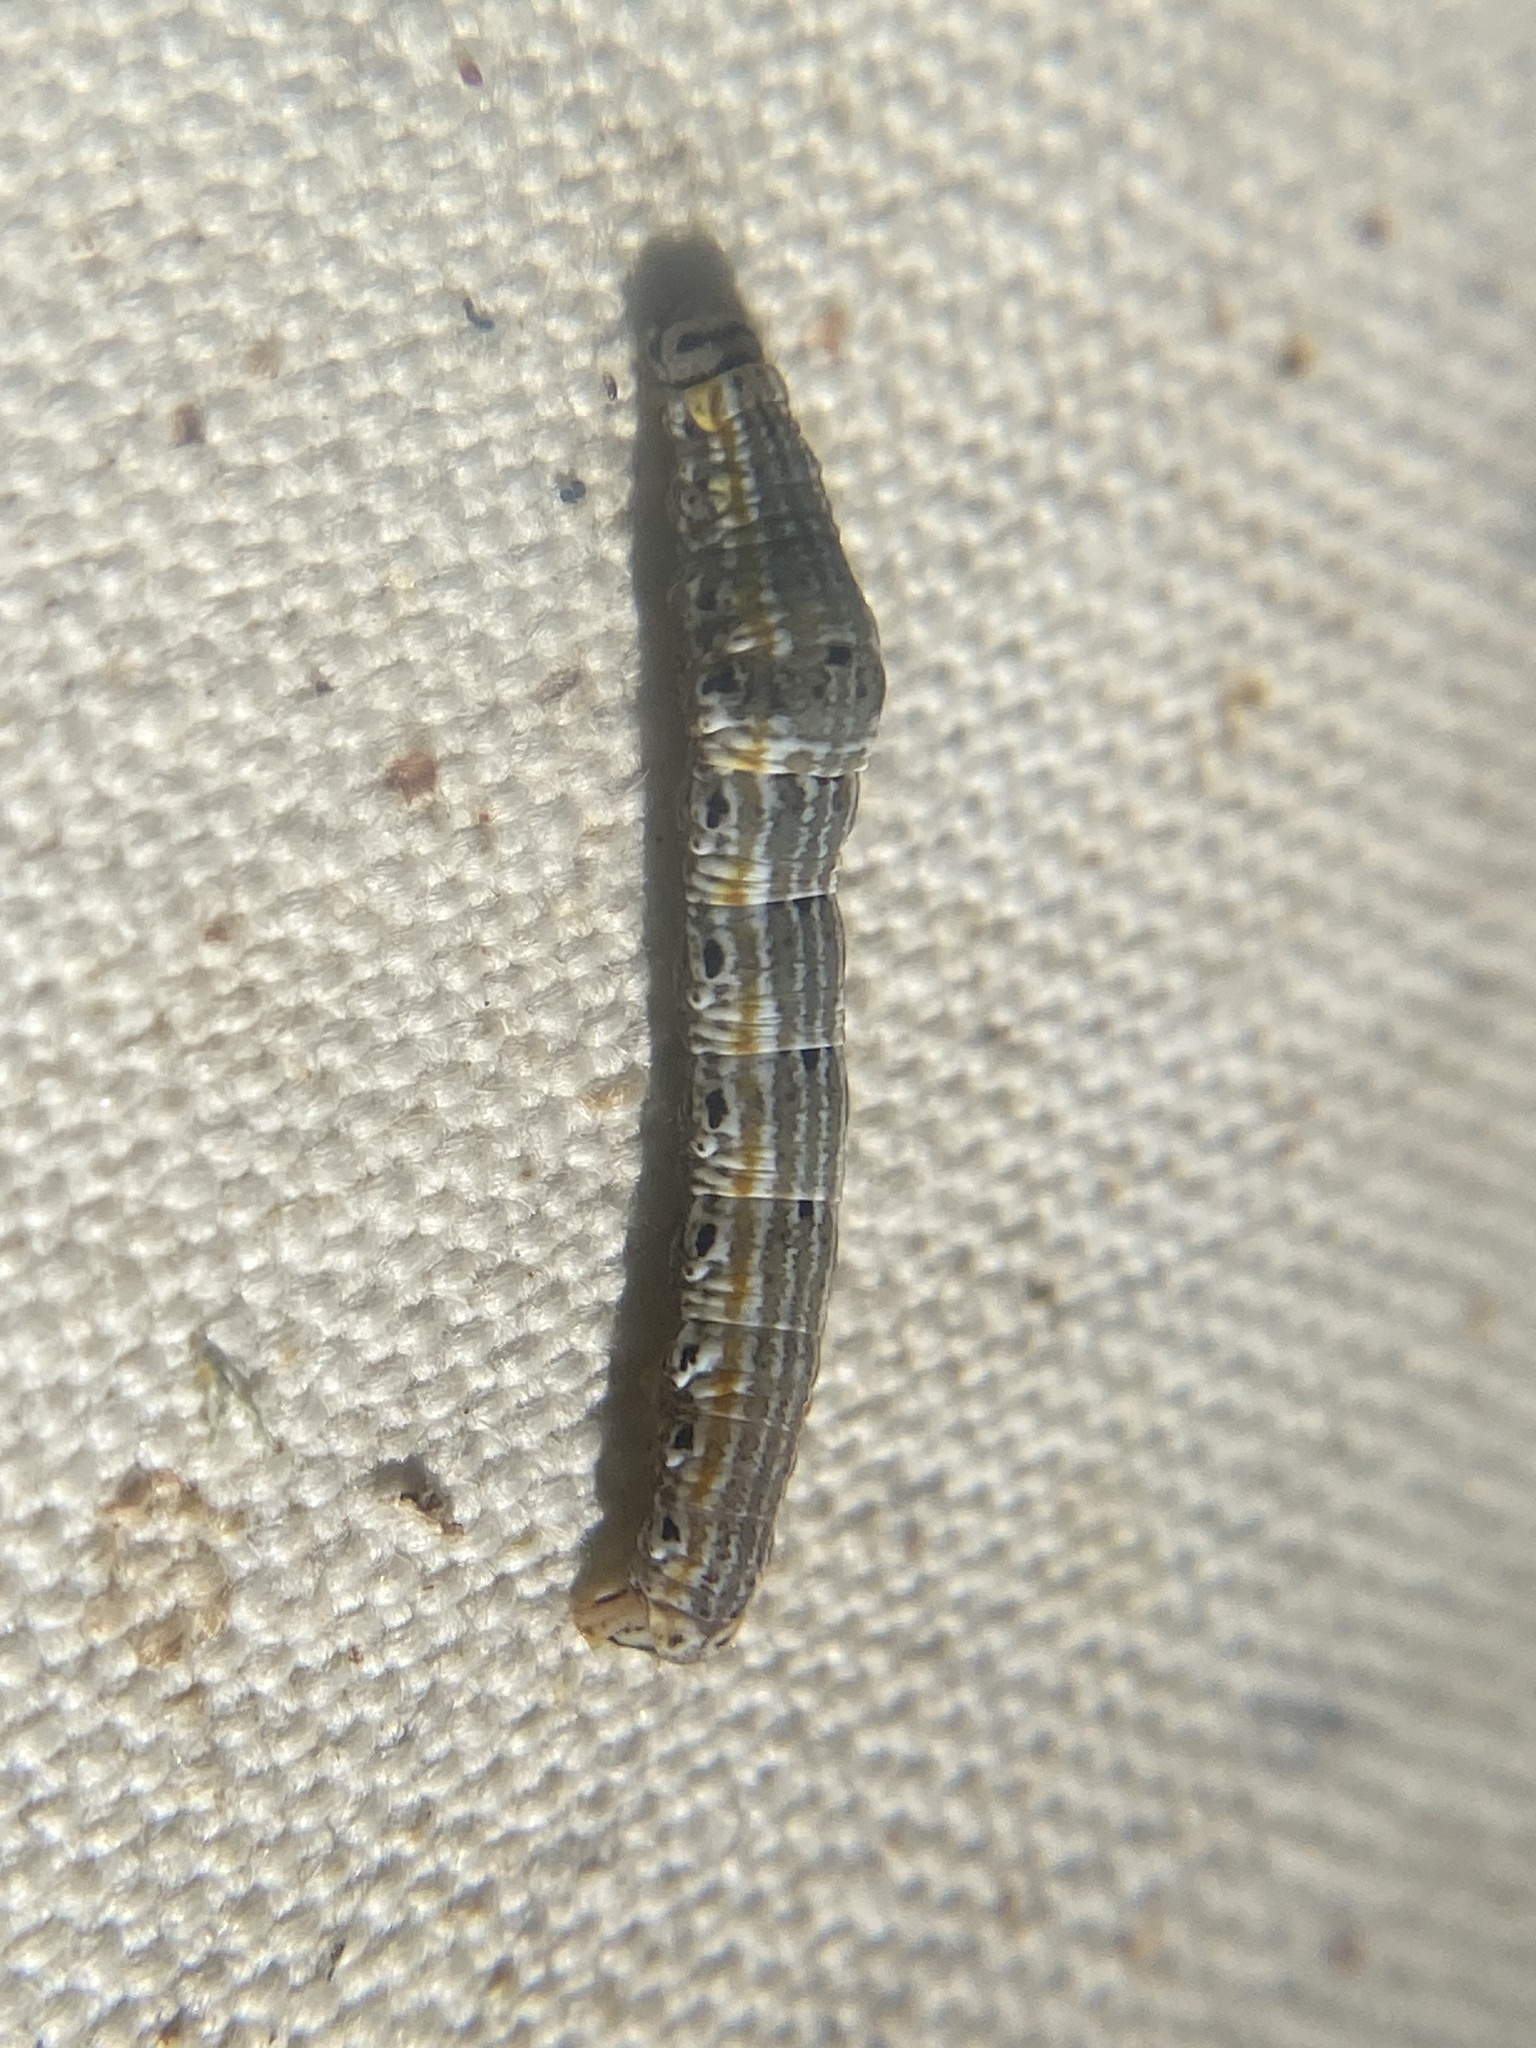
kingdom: Animalia
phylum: Arthropoda
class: Insecta
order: Lepidoptera
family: Geometridae
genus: Episemasia
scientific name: Episemasia solitaria
